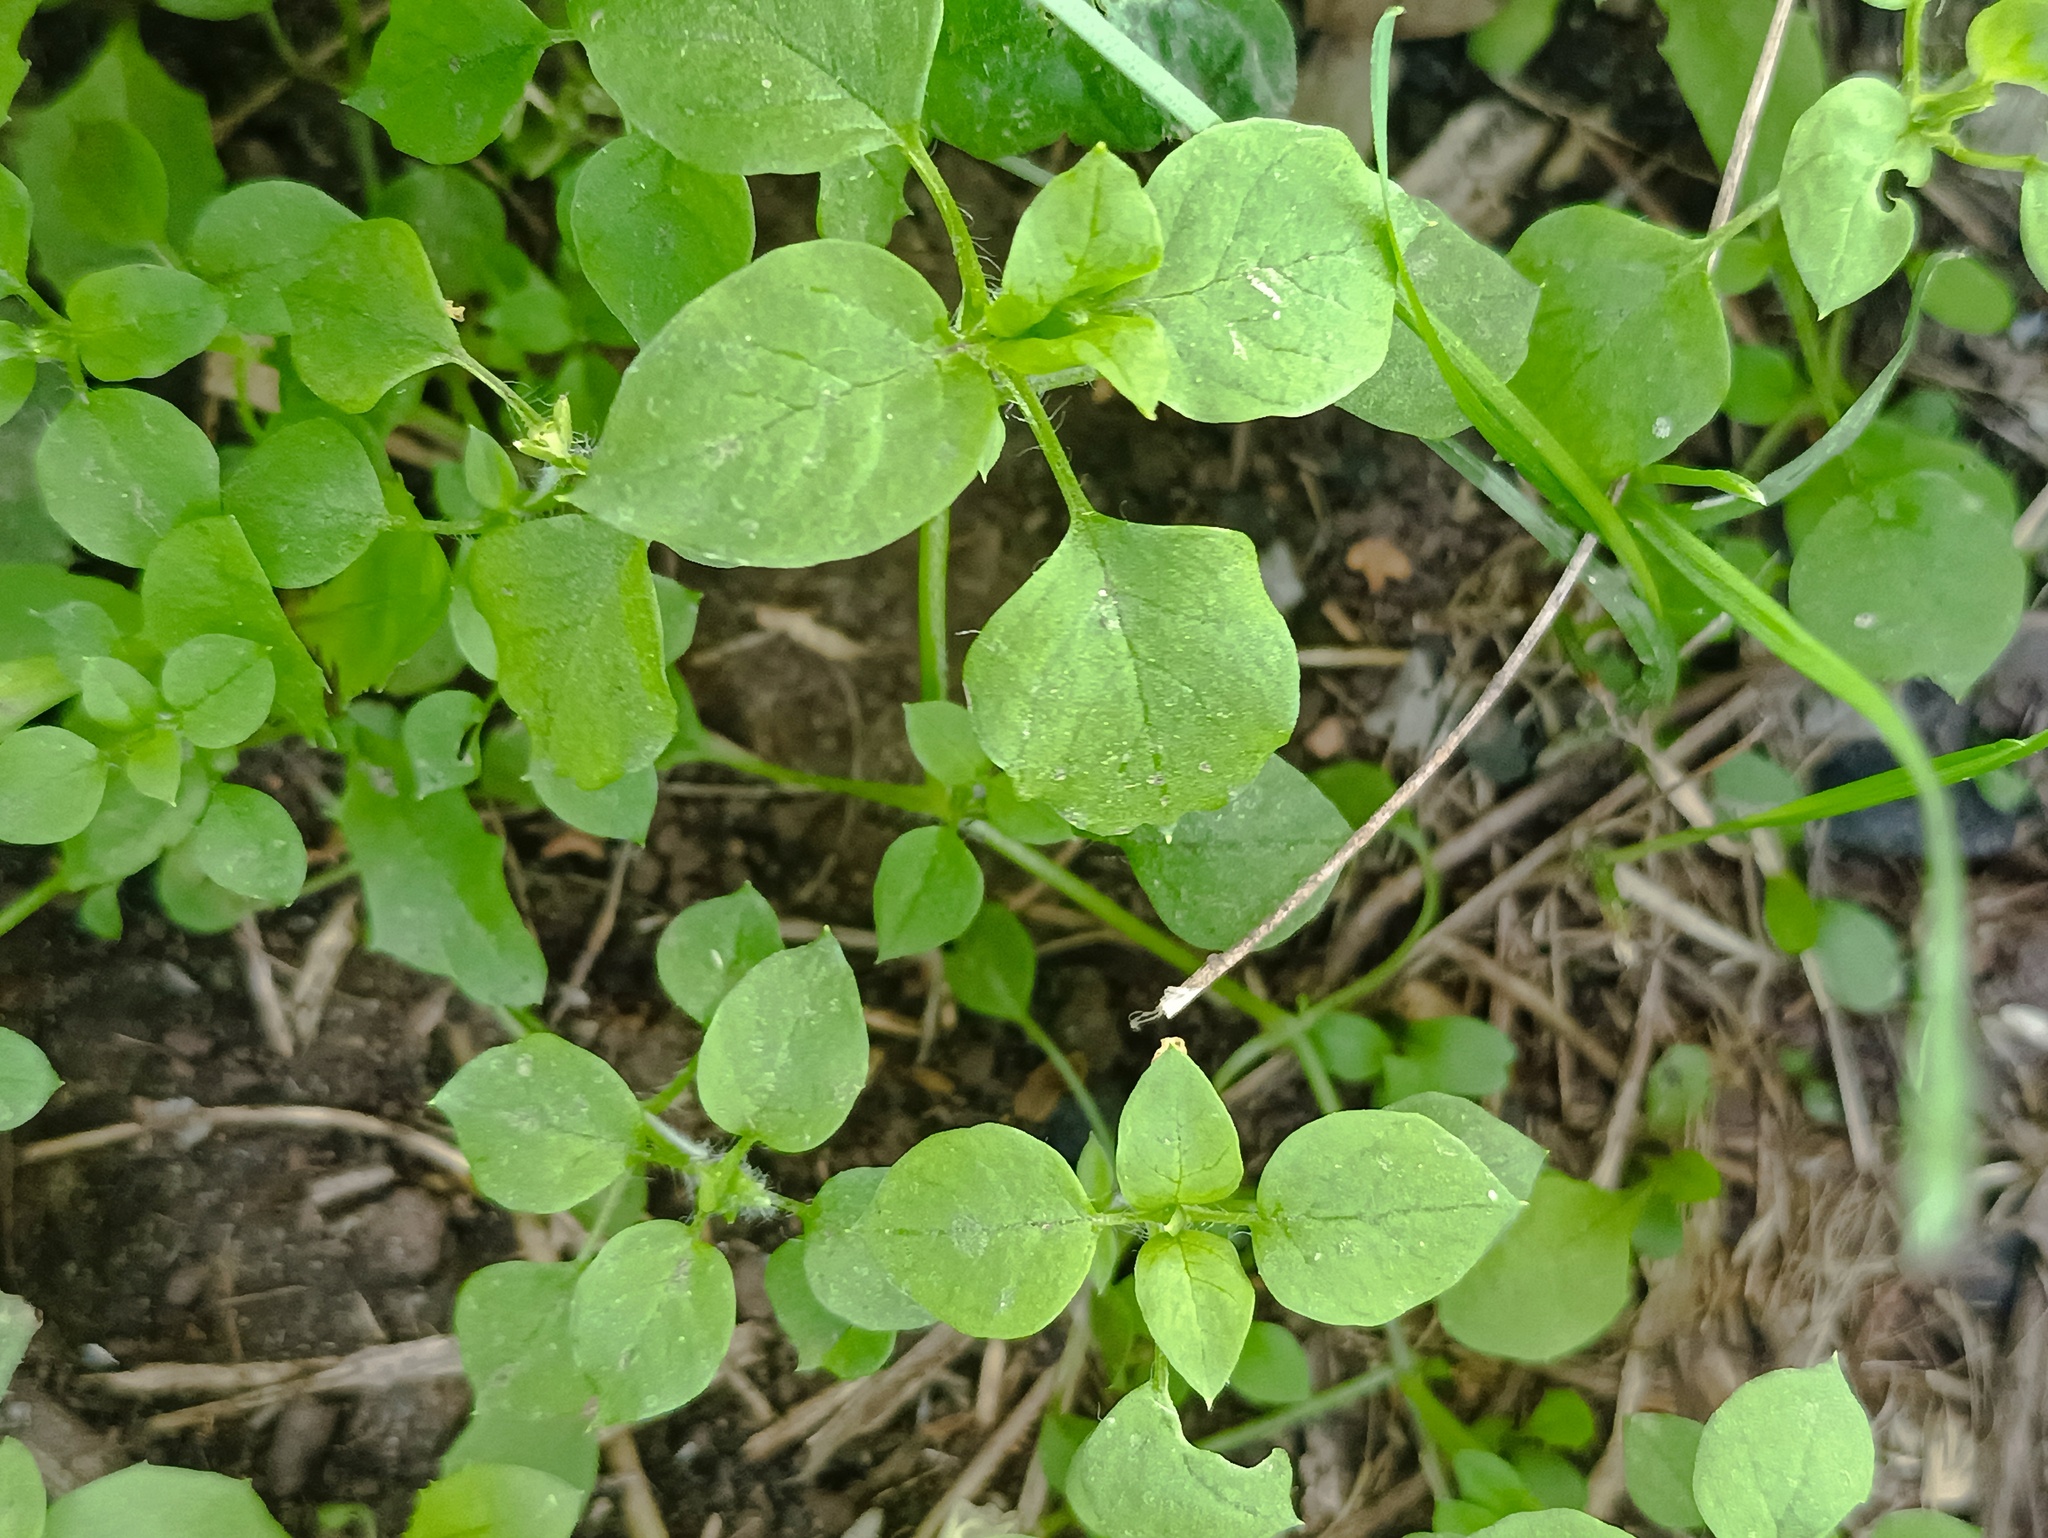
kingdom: Plantae
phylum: Tracheophyta
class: Magnoliopsida
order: Caryophyllales
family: Caryophyllaceae
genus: Stellaria
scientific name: Stellaria media
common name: Common chickweed
